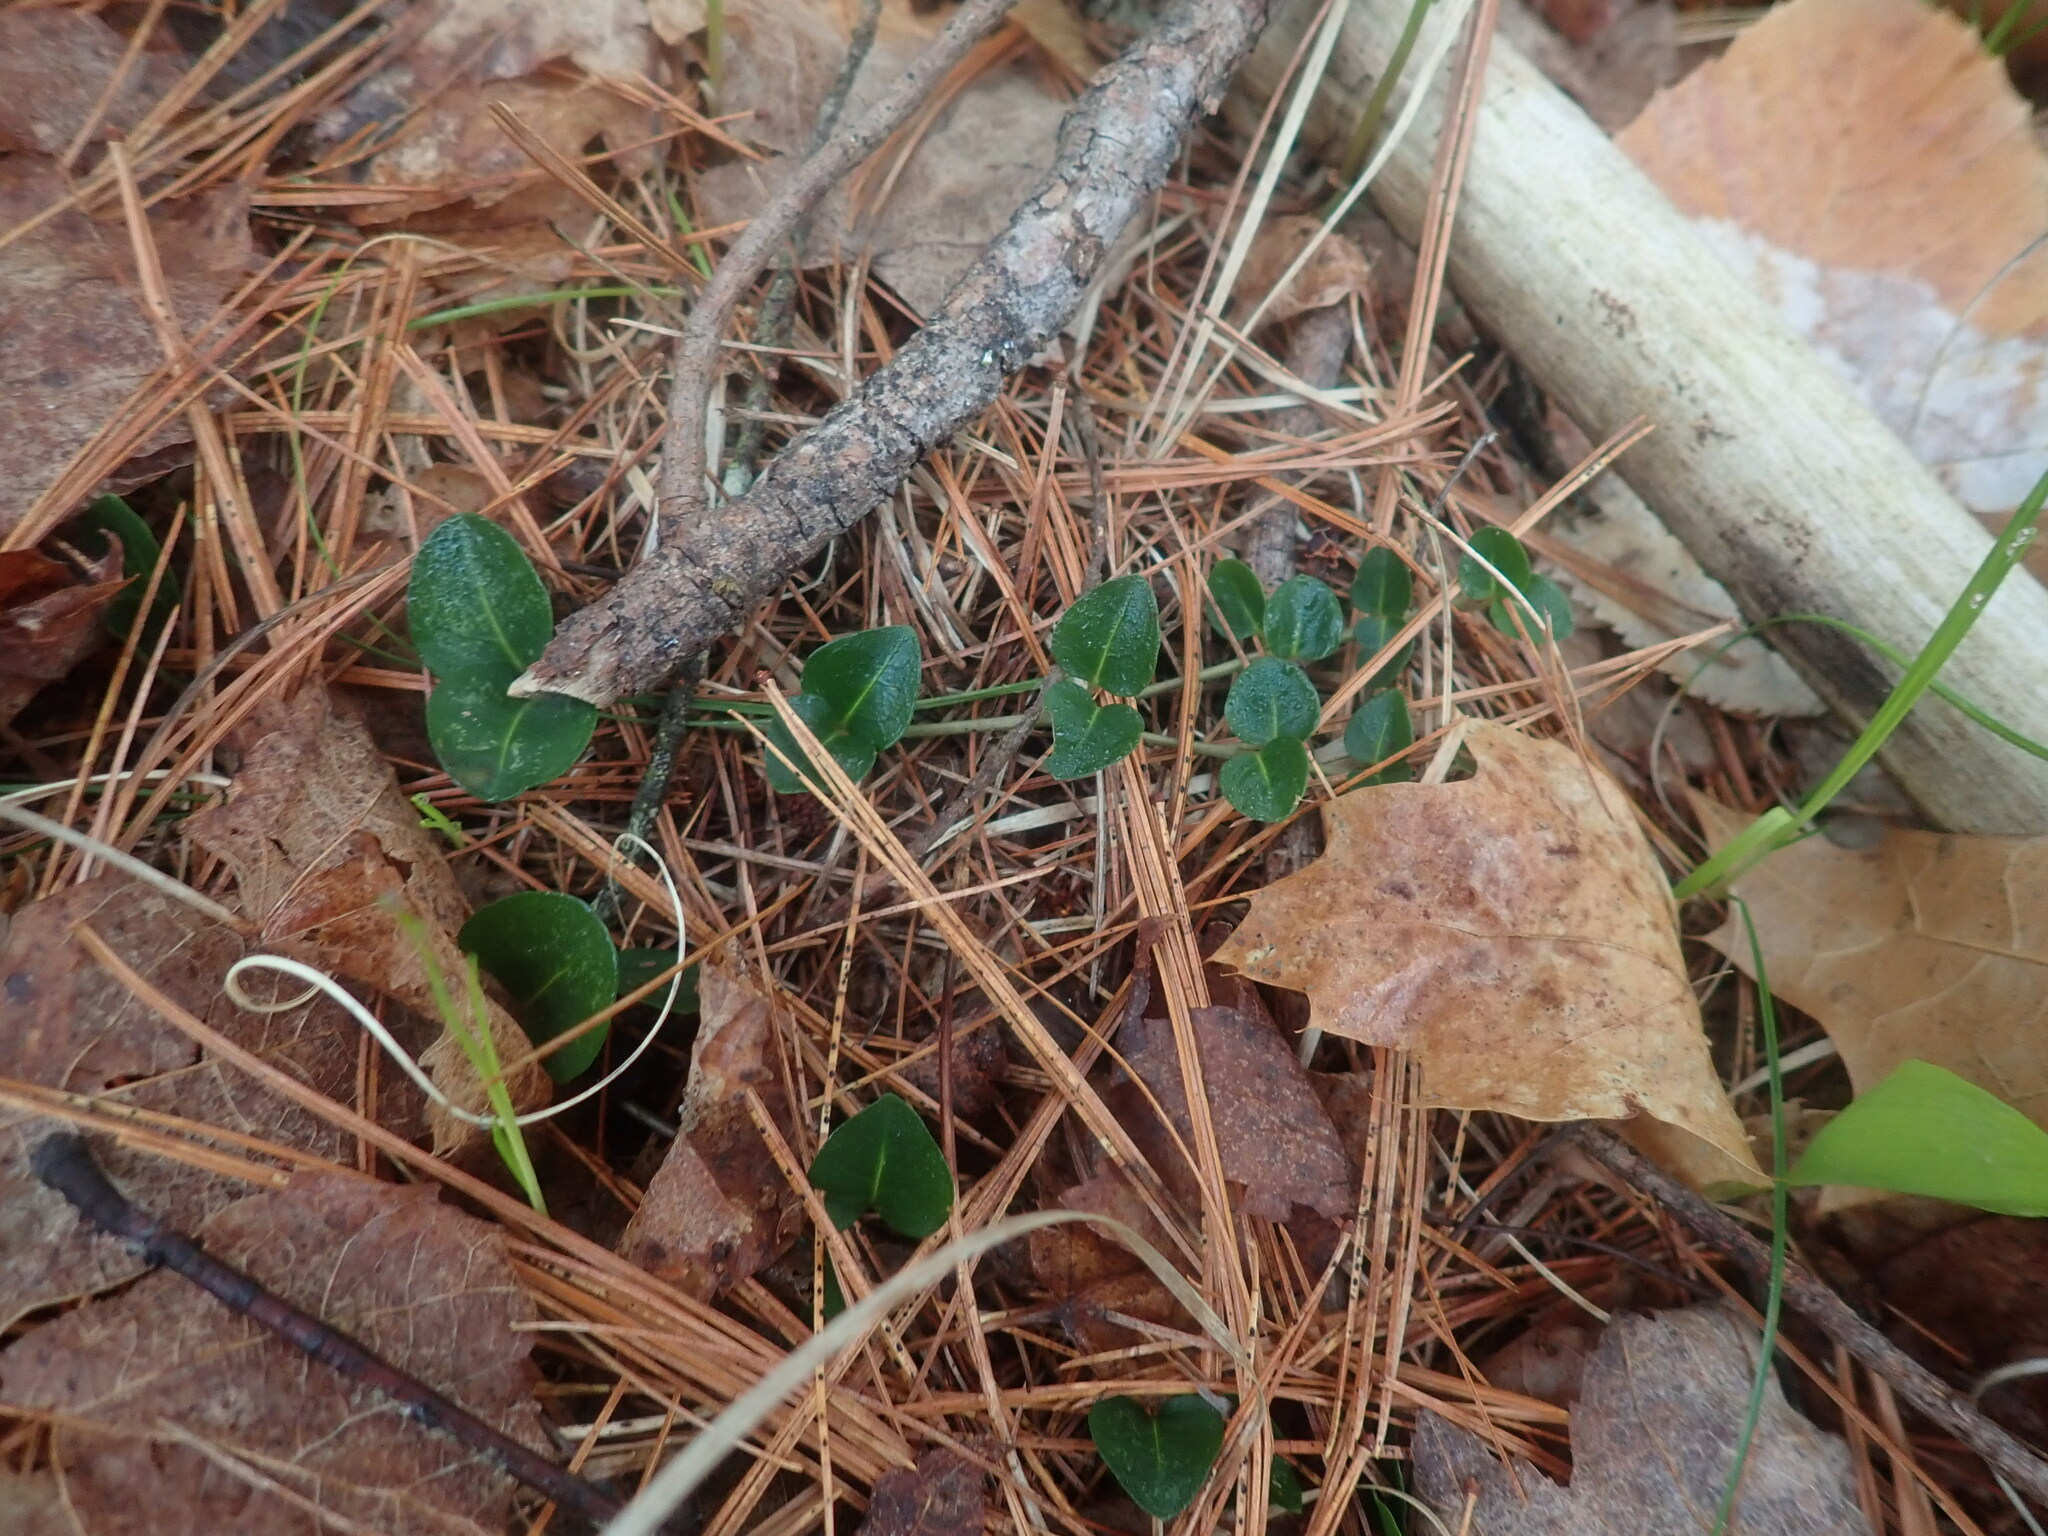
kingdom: Plantae
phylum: Tracheophyta
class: Magnoliopsida
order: Gentianales
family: Rubiaceae
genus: Mitchella
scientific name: Mitchella repens
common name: Partridge-berry
